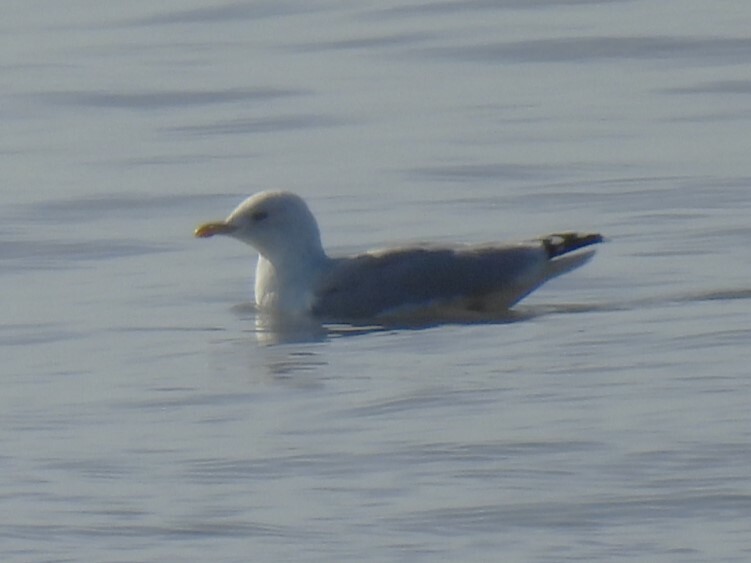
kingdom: Animalia
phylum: Chordata
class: Aves
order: Charadriiformes
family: Laridae
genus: Larus
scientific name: Larus argentatus
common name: Herring gull
